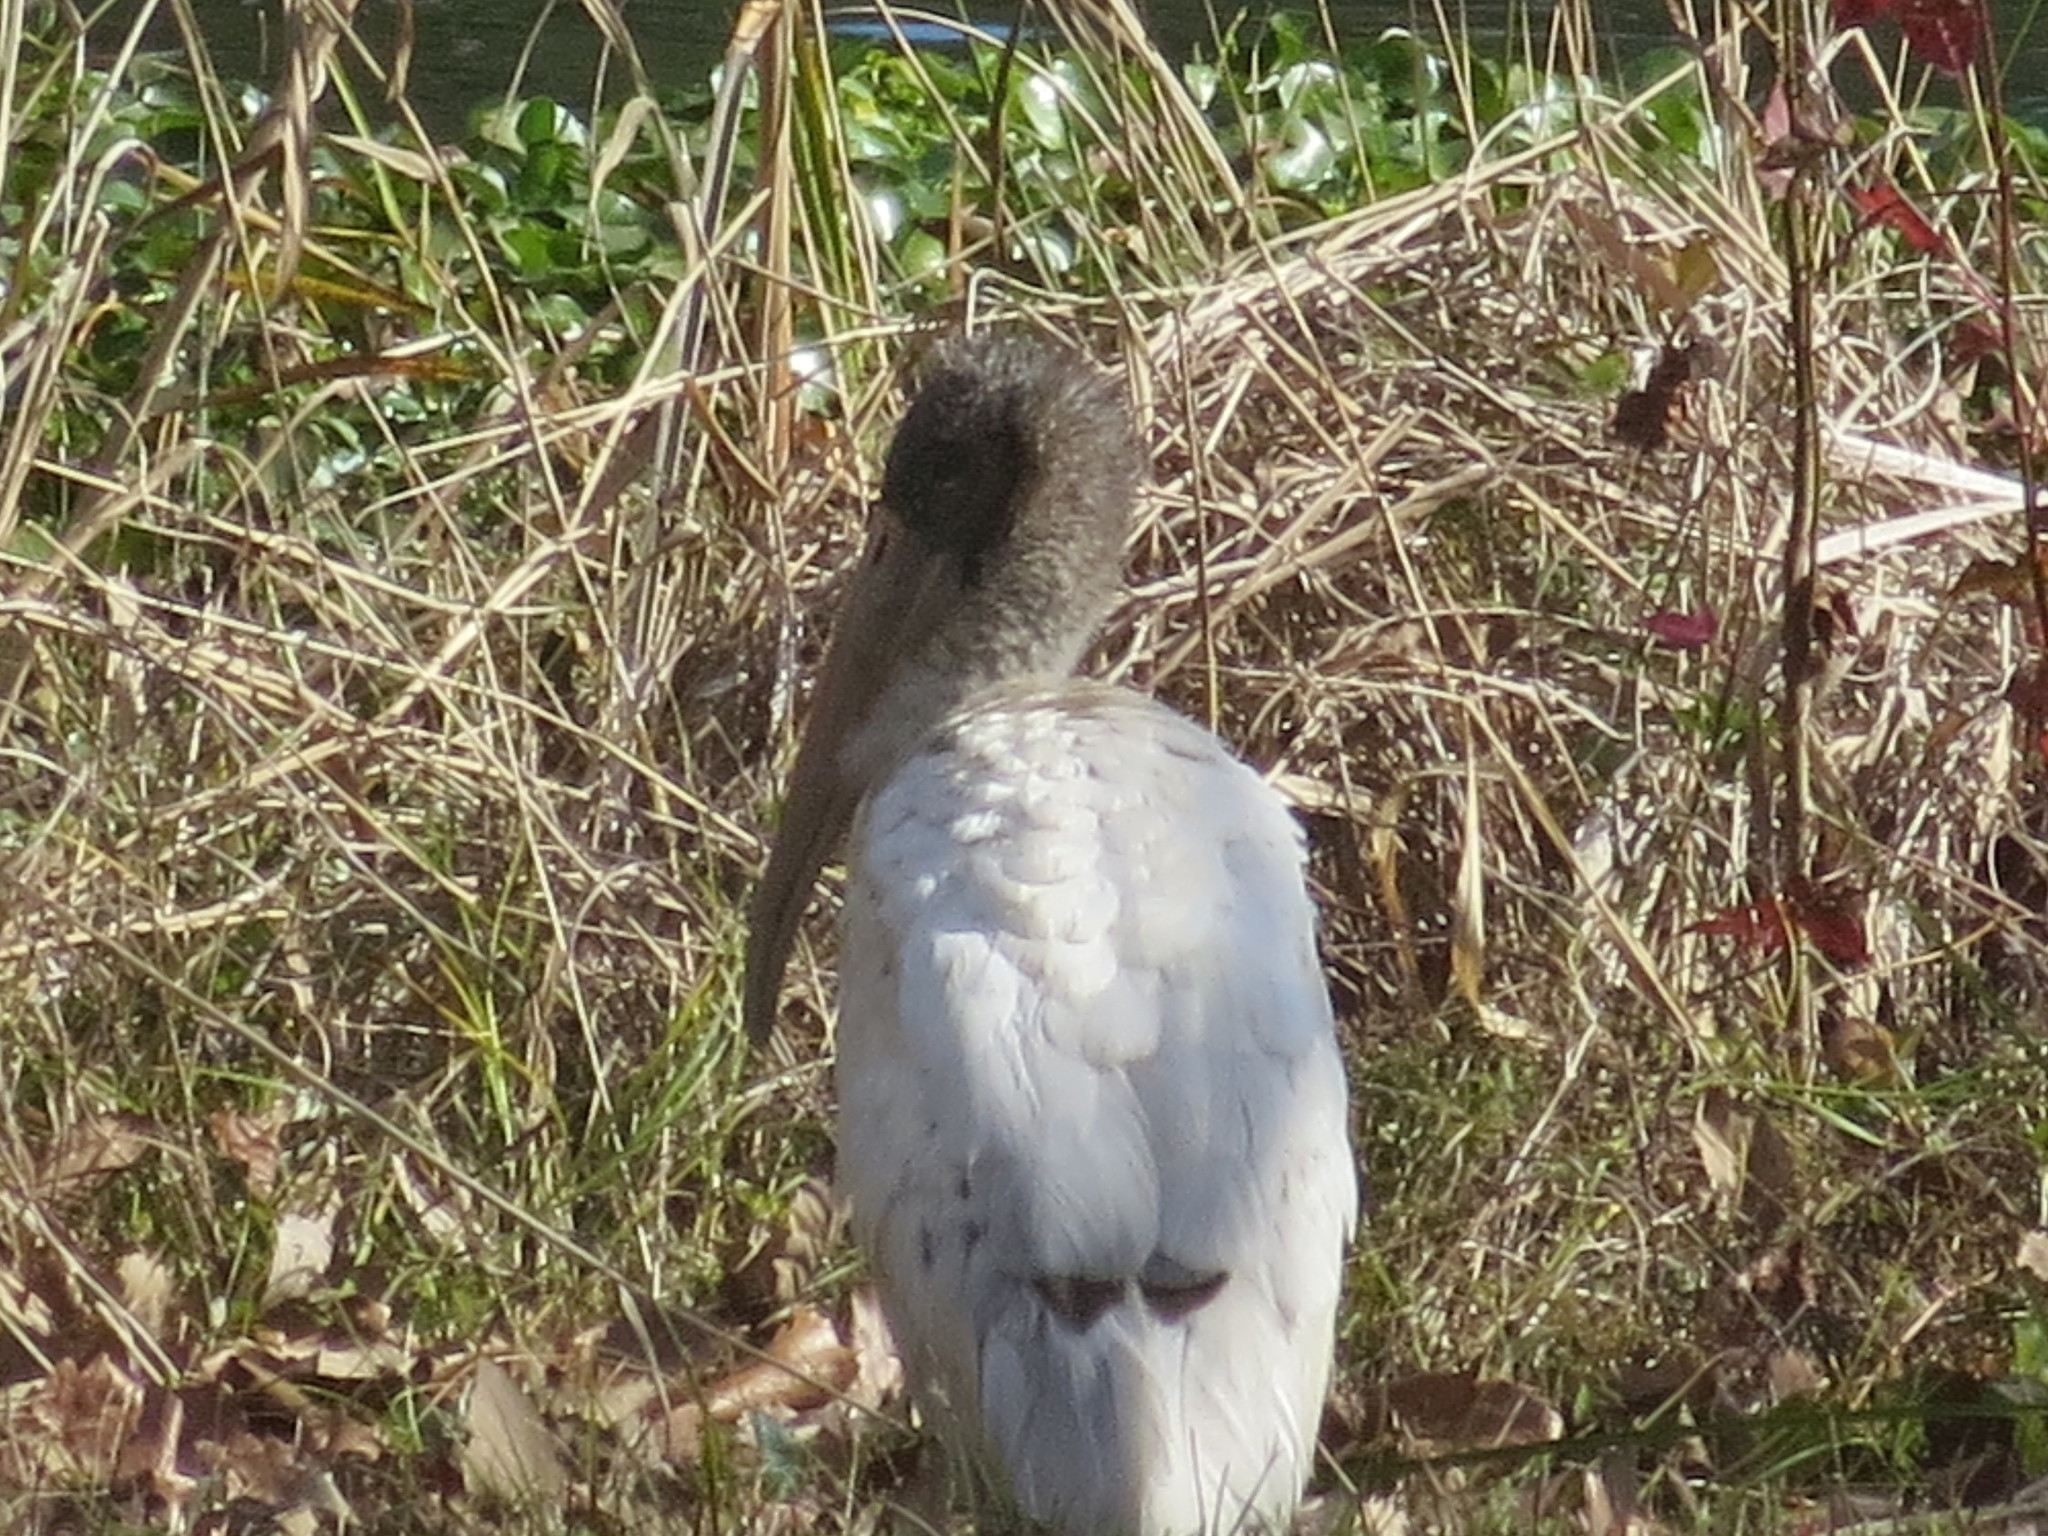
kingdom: Animalia
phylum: Chordata
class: Aves
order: Ciconiiformes
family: Ciconiidae
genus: Mycteria
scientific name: Mycteria americana
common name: Wood stork
